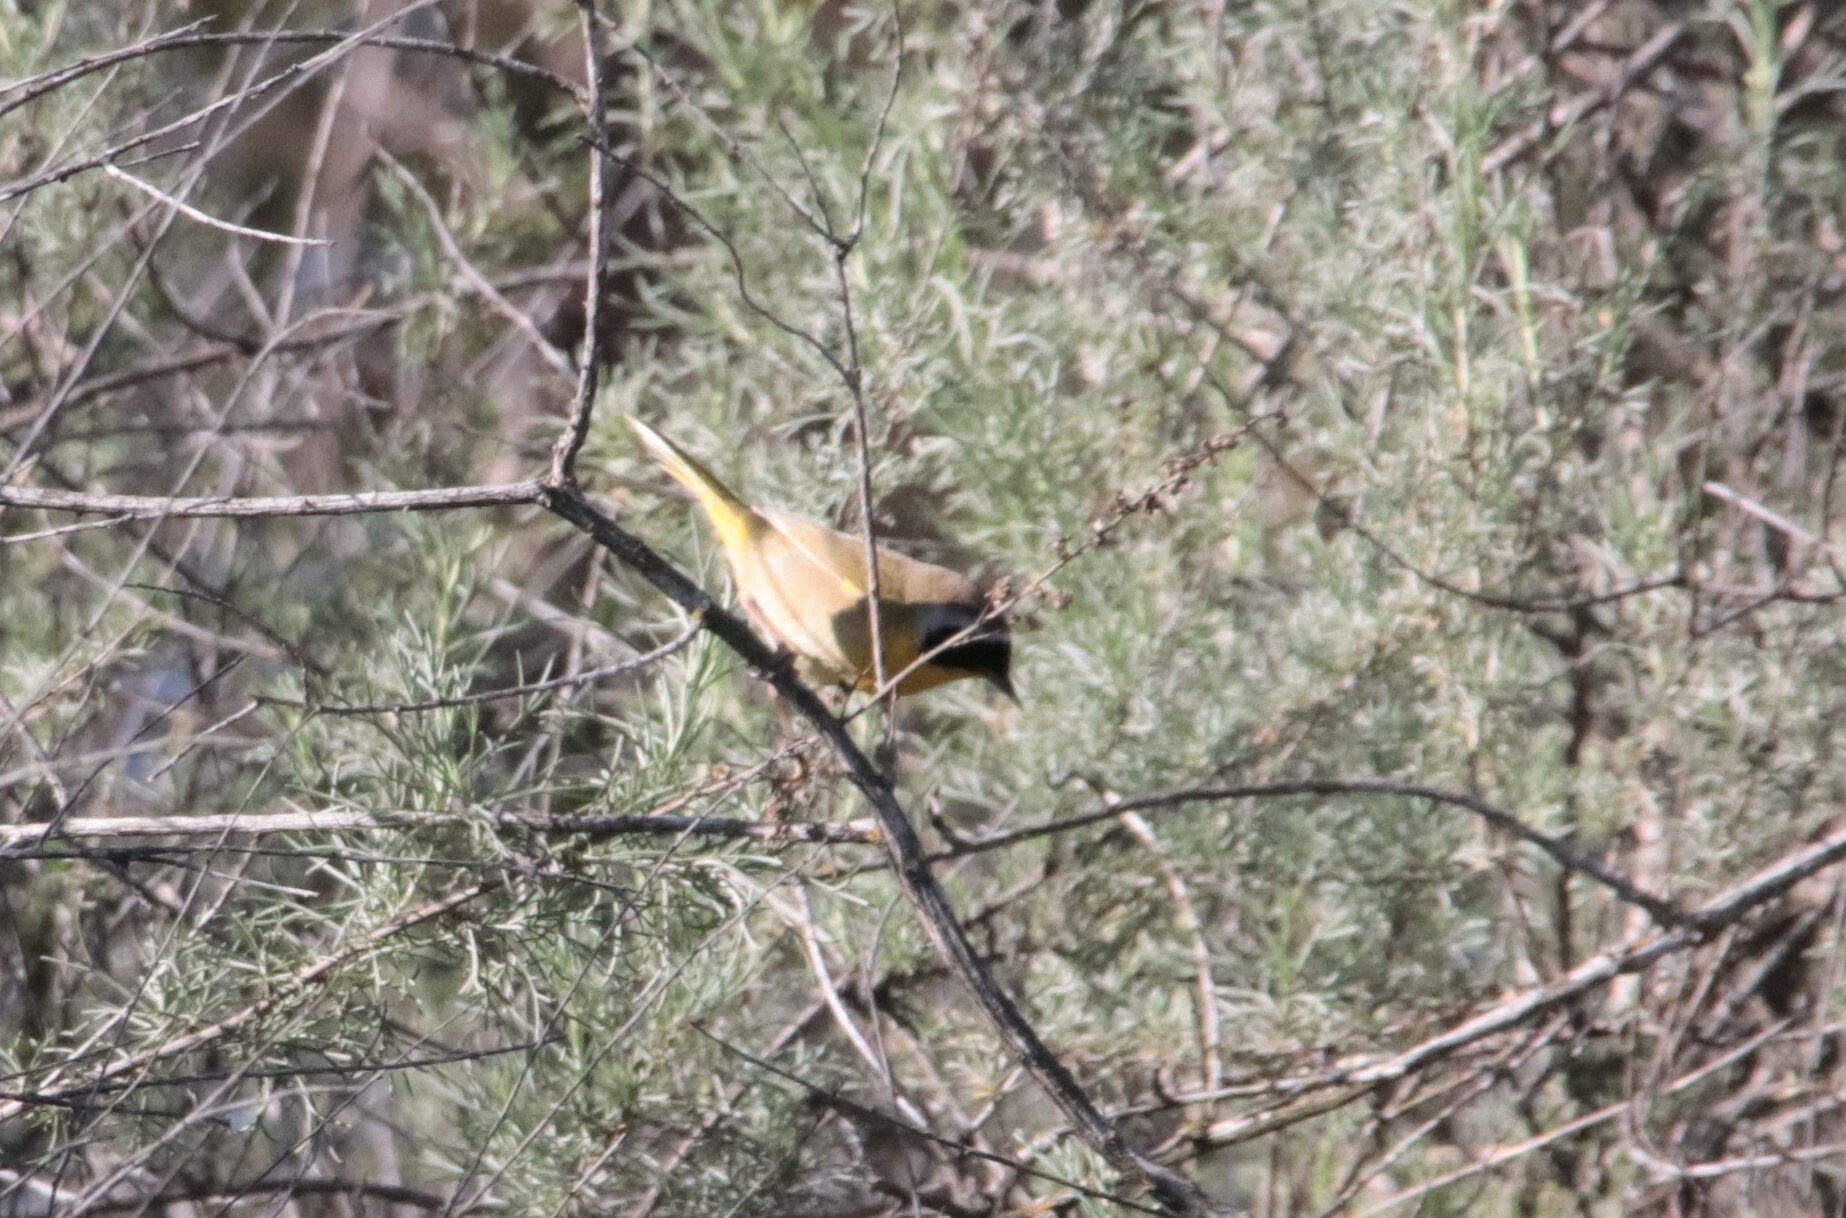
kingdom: Animalia
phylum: Chordata
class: Aves
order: Passeriformes
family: Parulidae
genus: Geothlypis
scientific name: Geothlypis trichas
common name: Common yellowthroat
